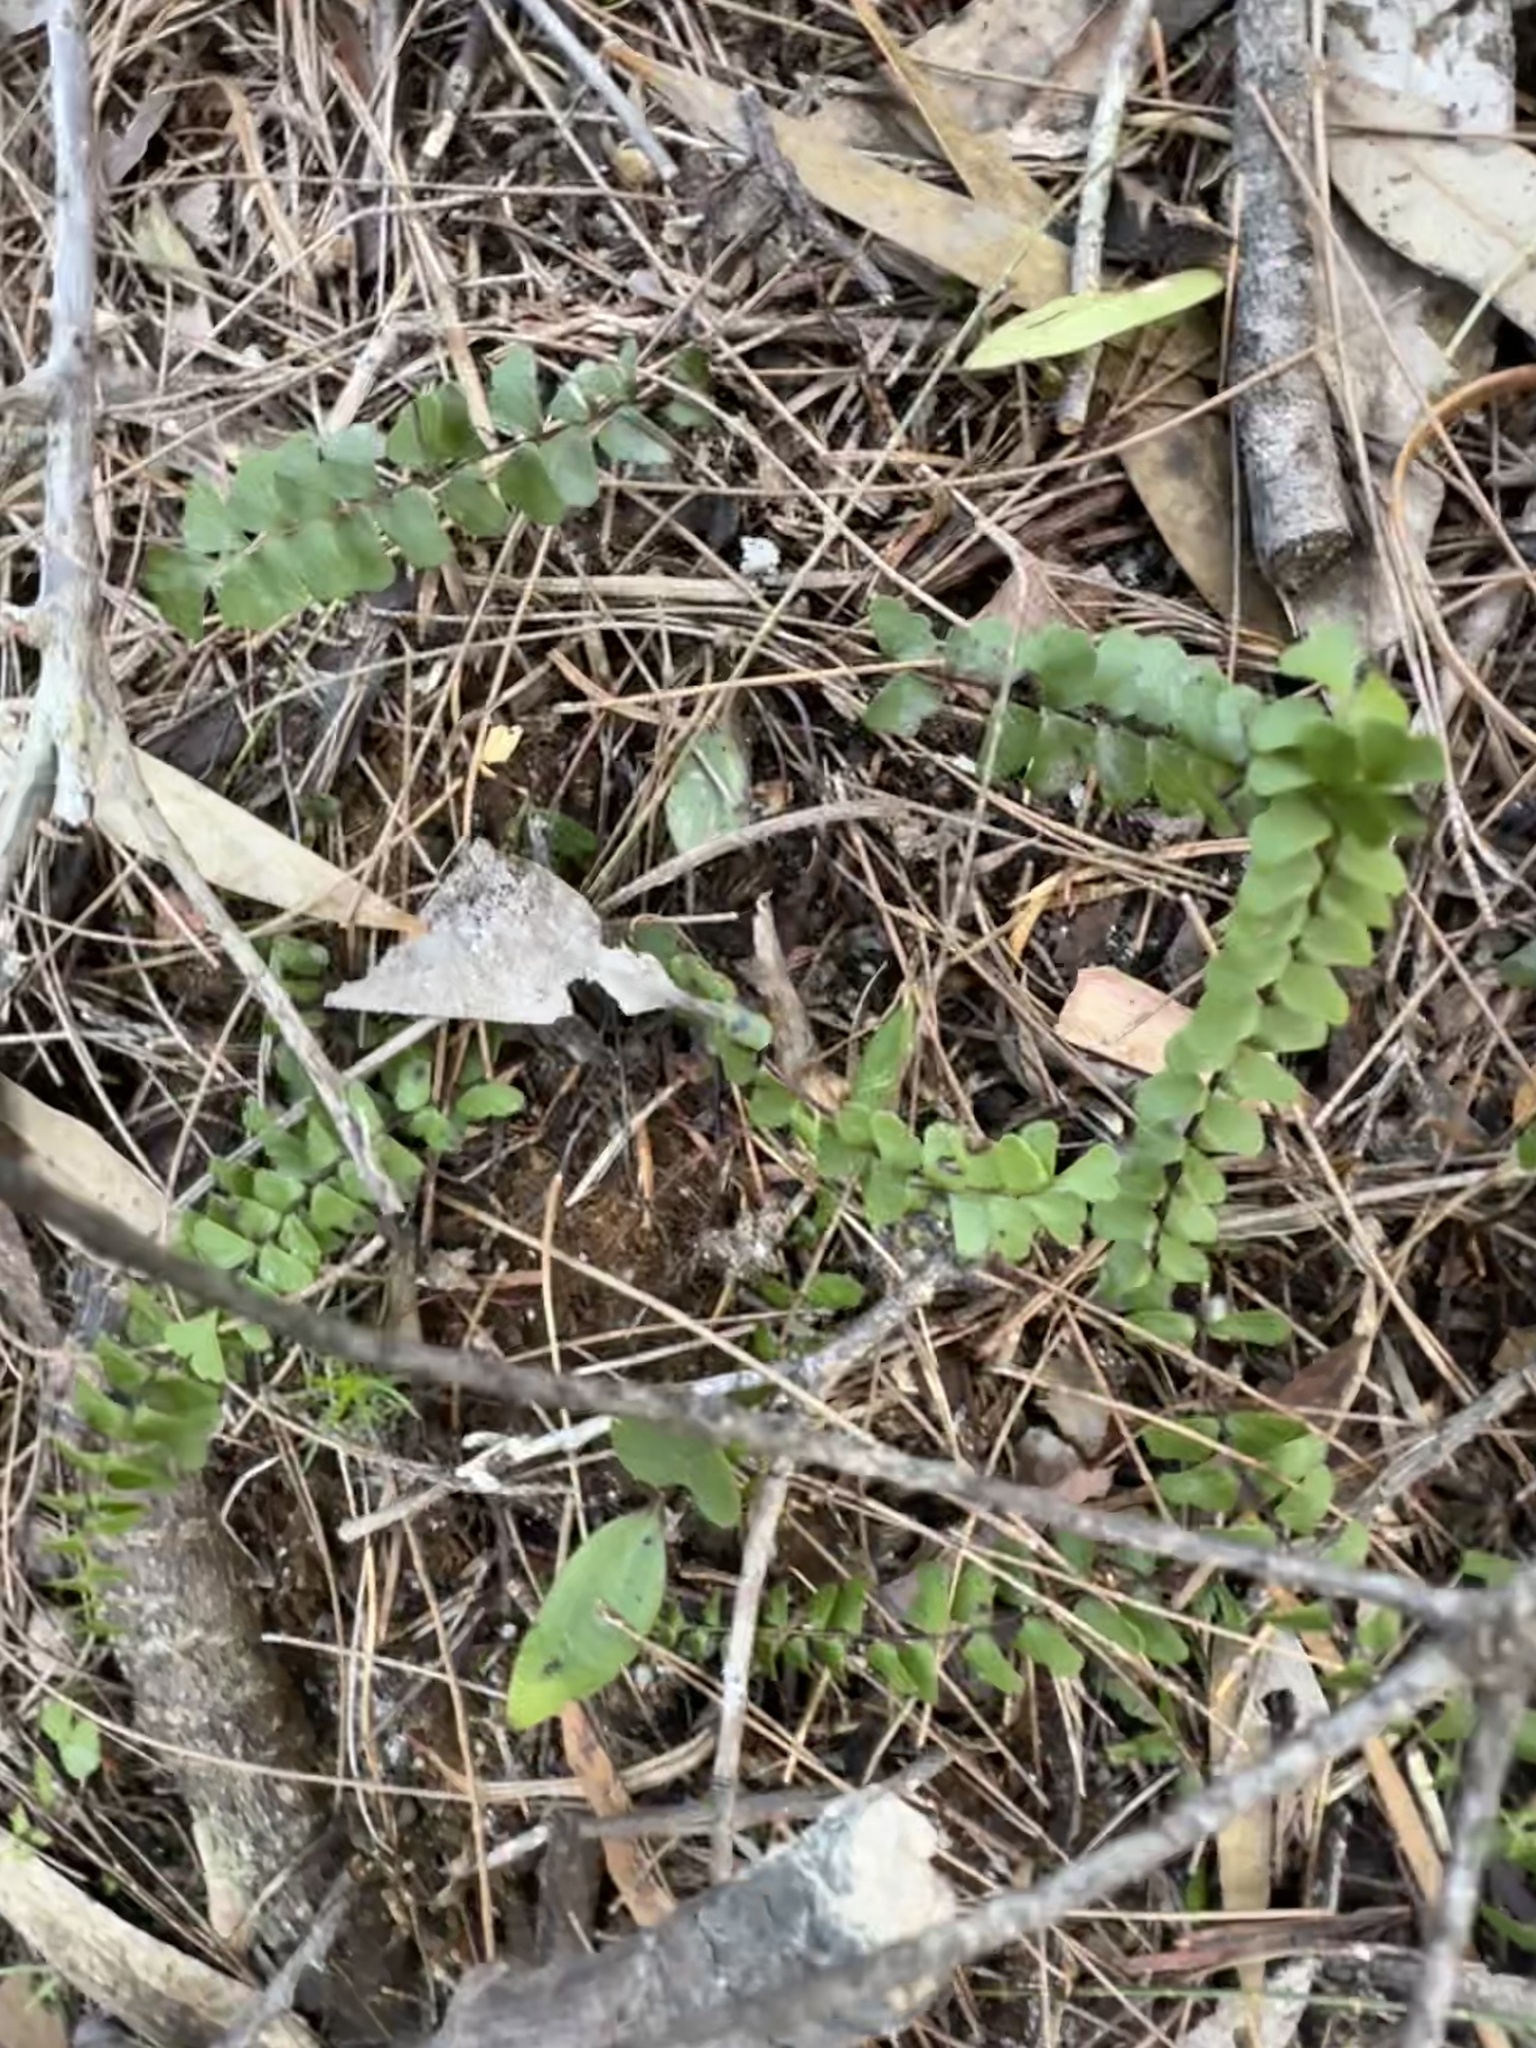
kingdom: Plantae
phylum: Tracheophyta
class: Polypodiopsida
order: Polypodiales
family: Lindsaeaceae
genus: Lindsaea
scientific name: Lindsaea linearis
